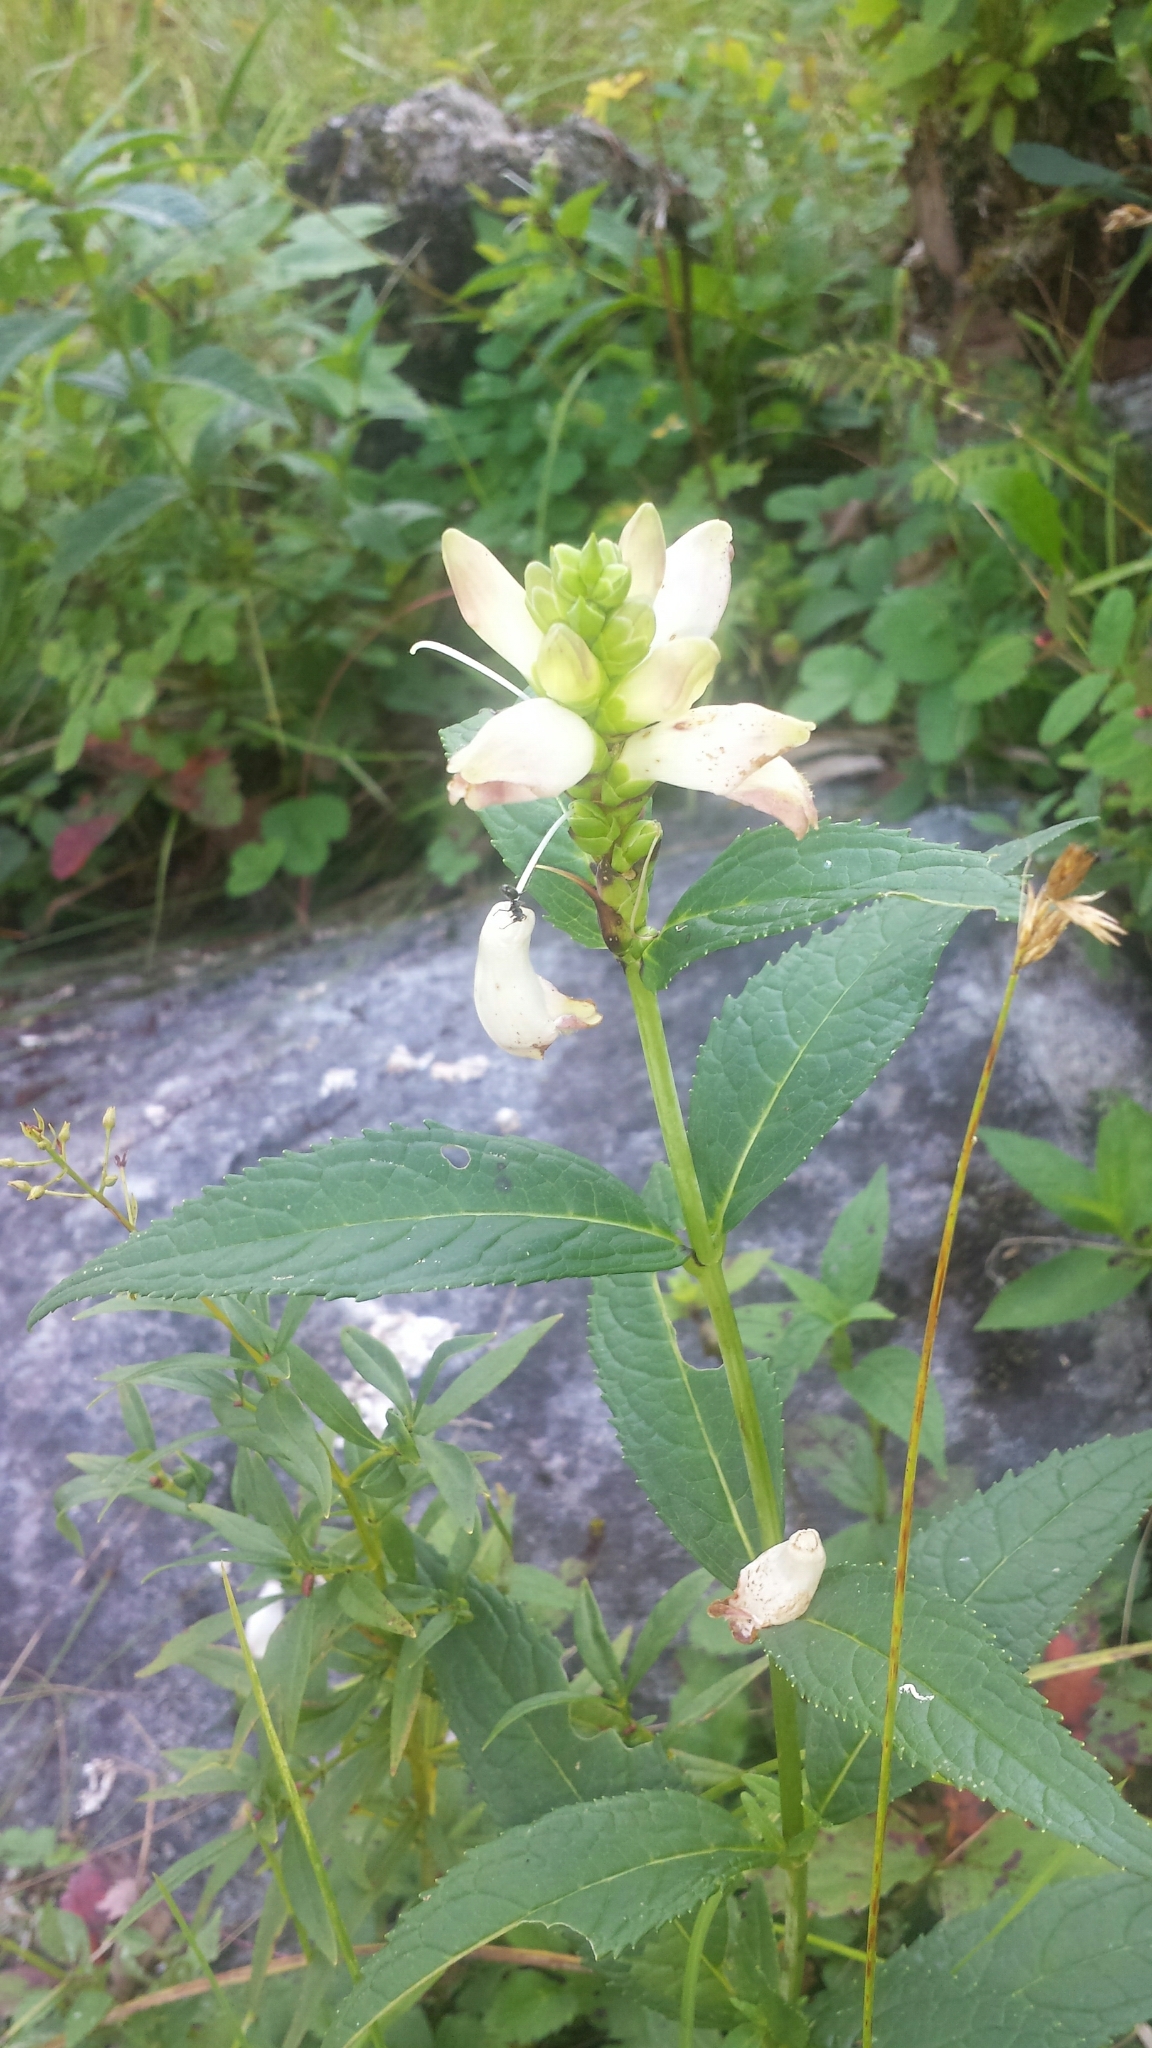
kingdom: Plantae
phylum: Tracheophyta
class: Magnoliopsida
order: Lamiales
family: Plantaginaceae
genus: Chelone
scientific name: Chelone glabra
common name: Snakehead
